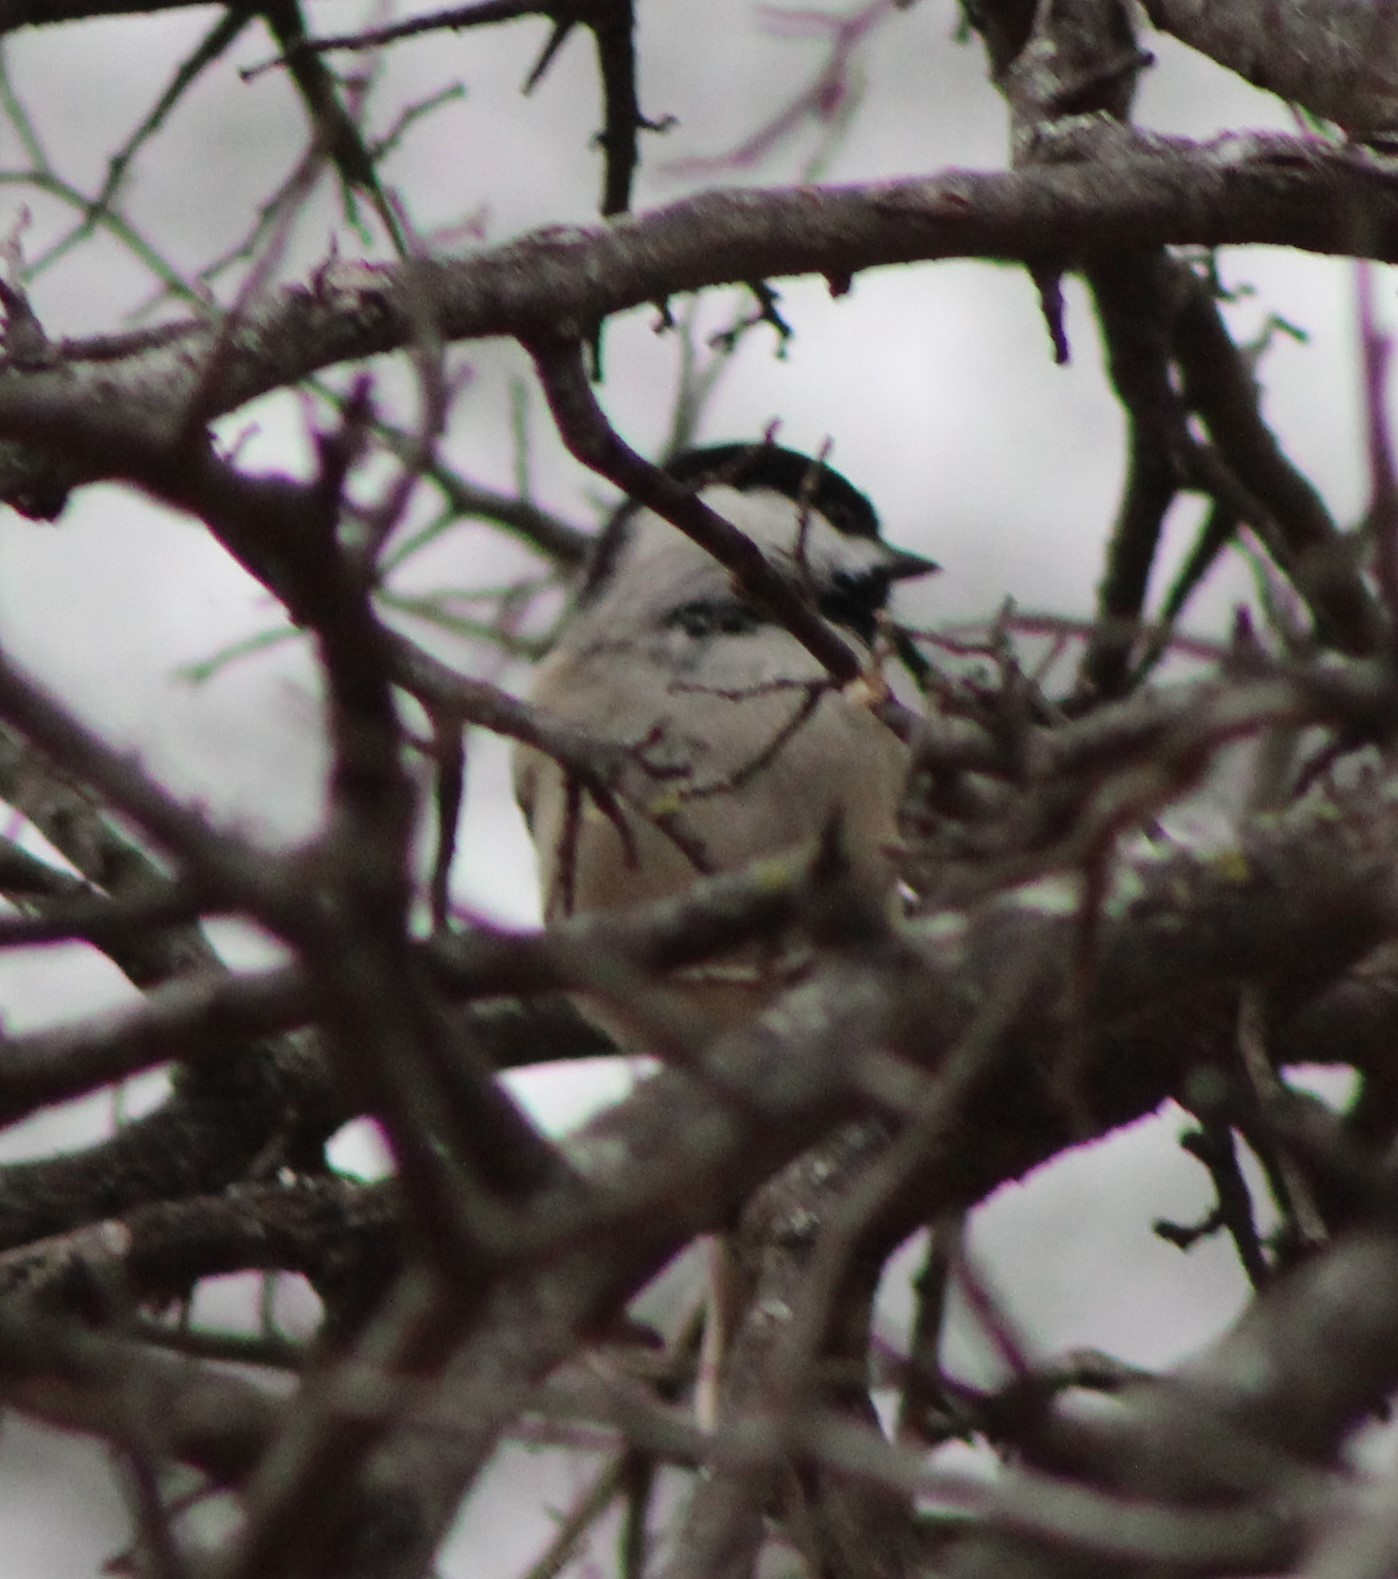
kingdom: Animalia
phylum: Chordata
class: Aves
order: Passeriformes
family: Paridae
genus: Poecile
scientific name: Poecile carolinensis
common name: Carolina chickadee
